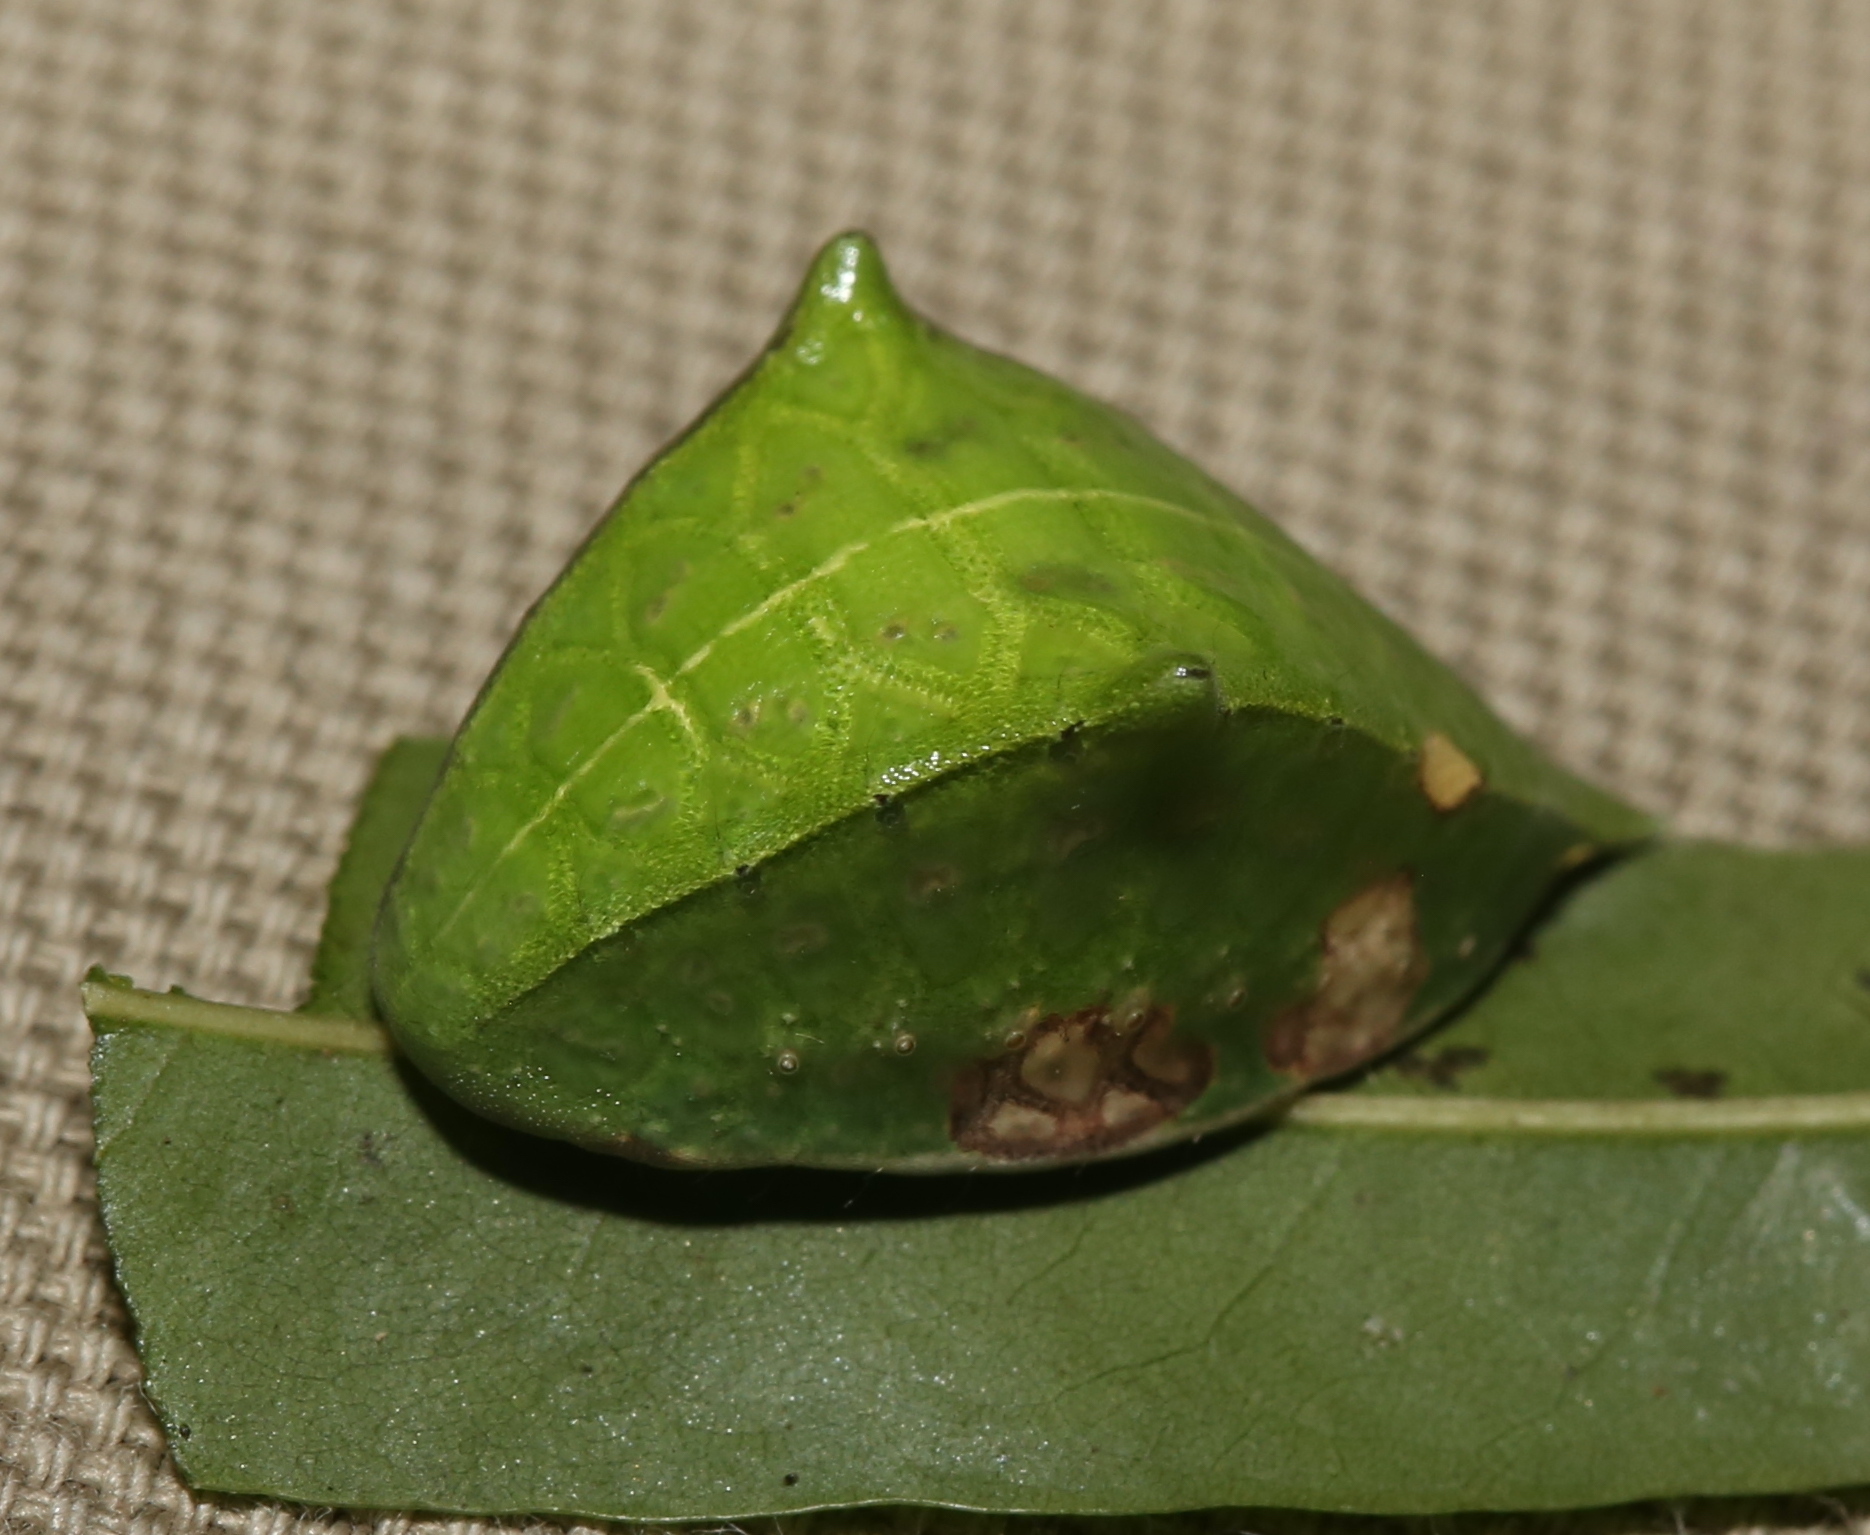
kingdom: Animalia
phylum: Arthropoda
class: Insecta
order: Lepidoptera
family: Limacodidae
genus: Prolimacodes
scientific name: Prolimacodes badia
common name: Skiff moth
